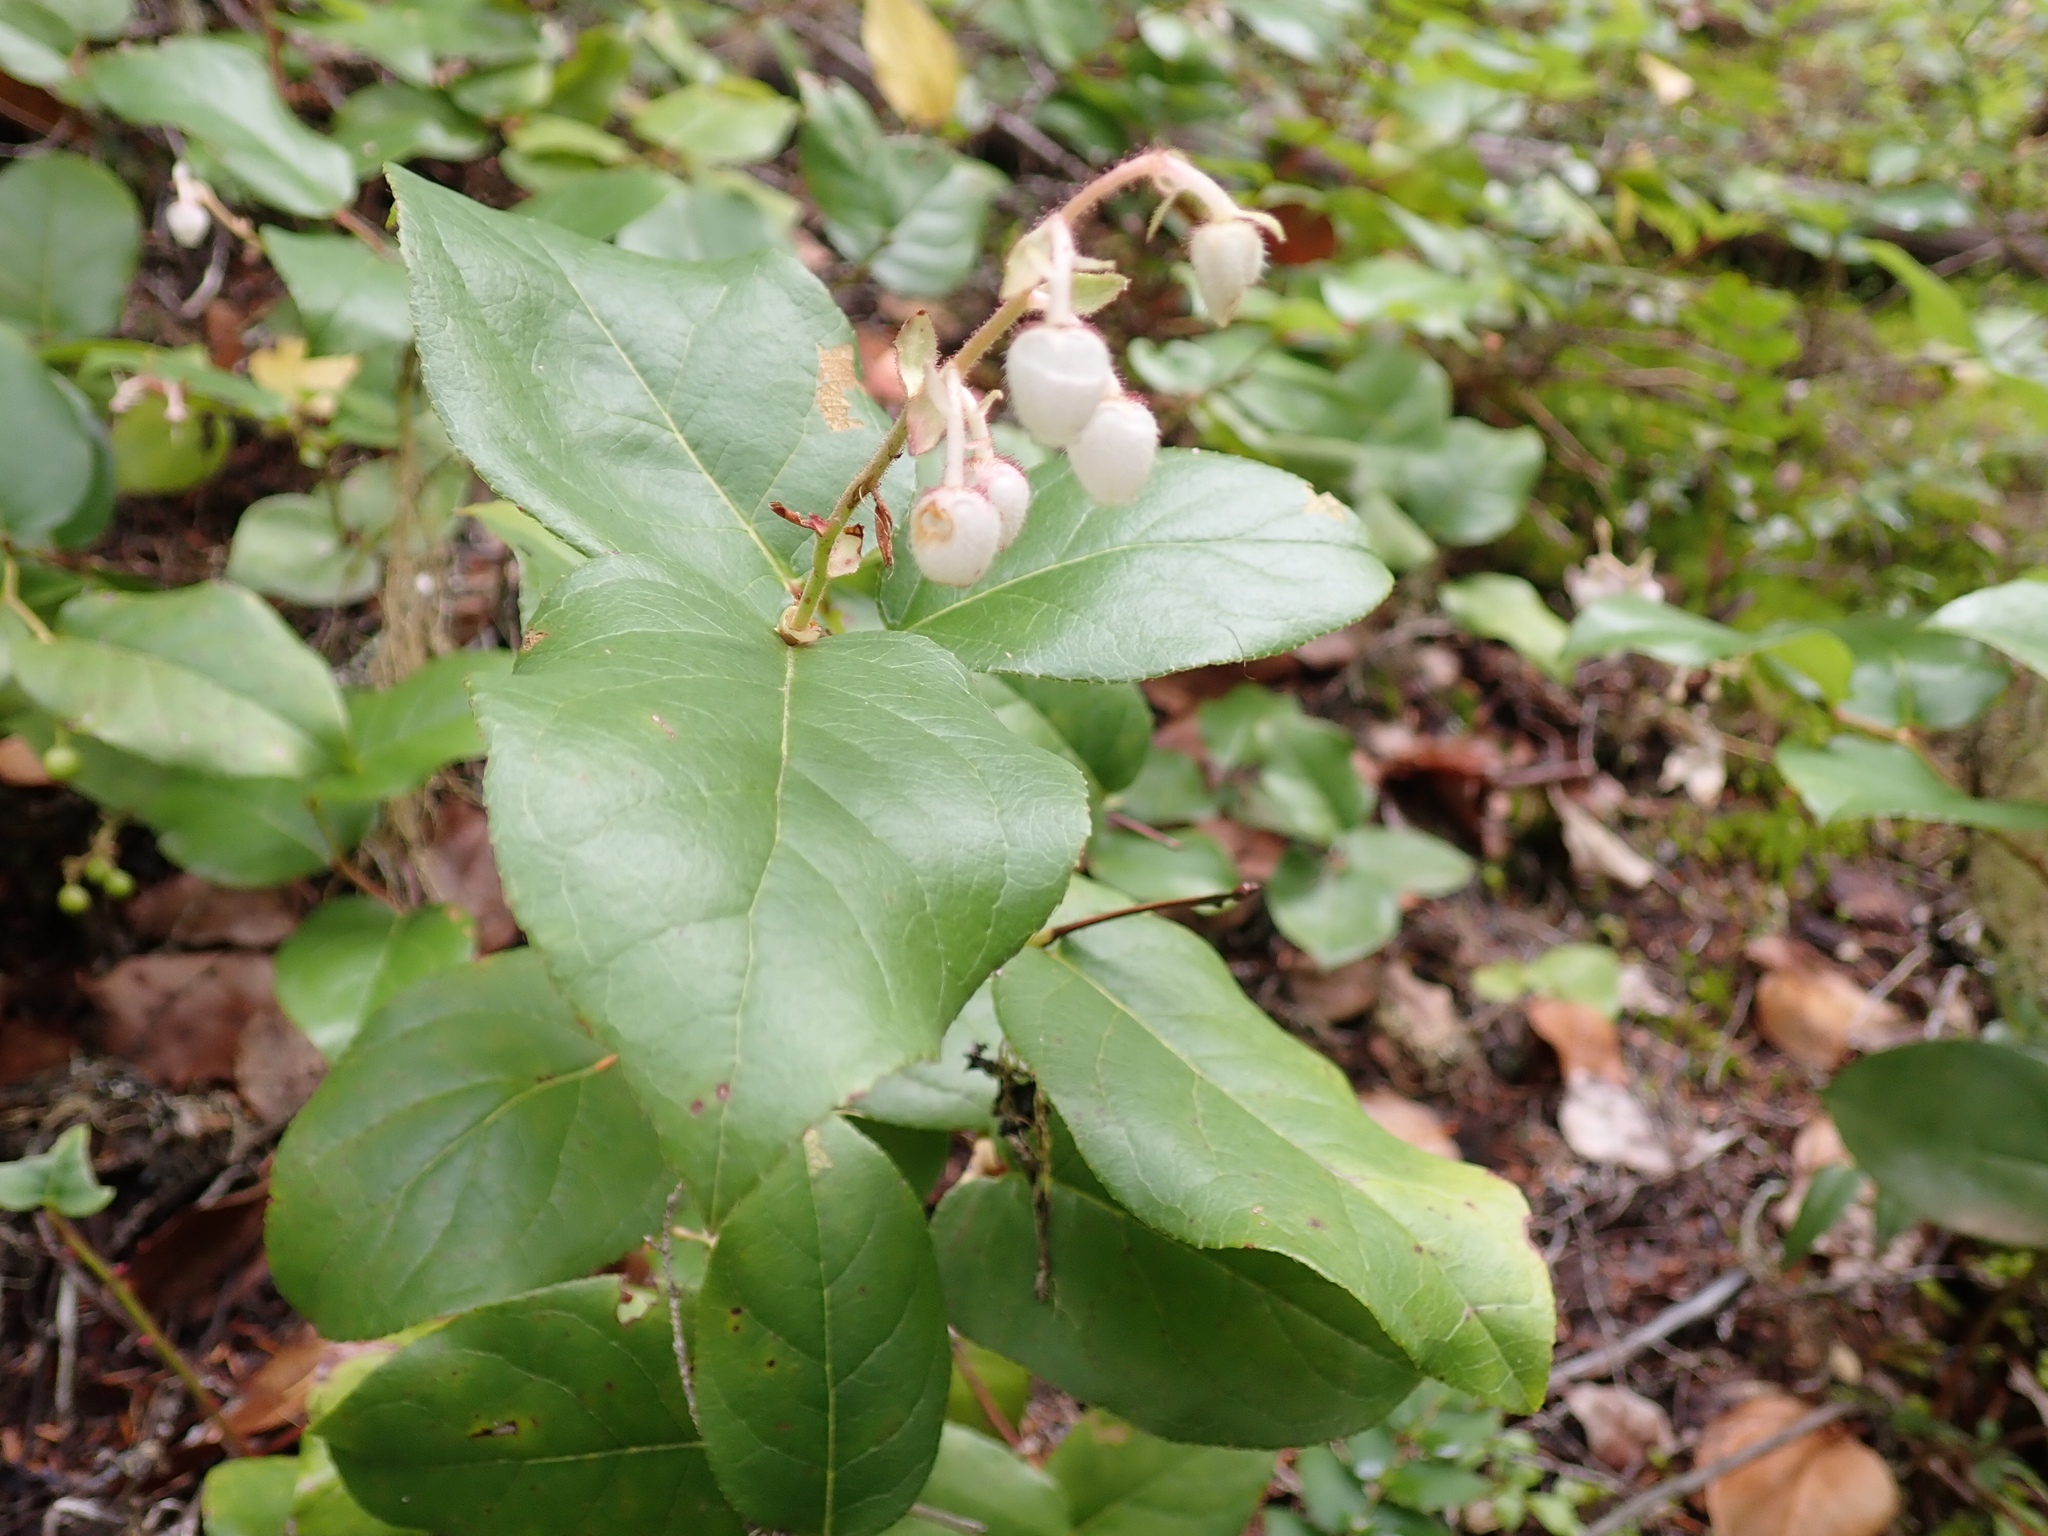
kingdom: Plantae
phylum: Tracheophyta
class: Magnoliopsida
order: Ericales
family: Ericaceae
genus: Gaultheria
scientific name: Gaultheria shallon
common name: Shallon
